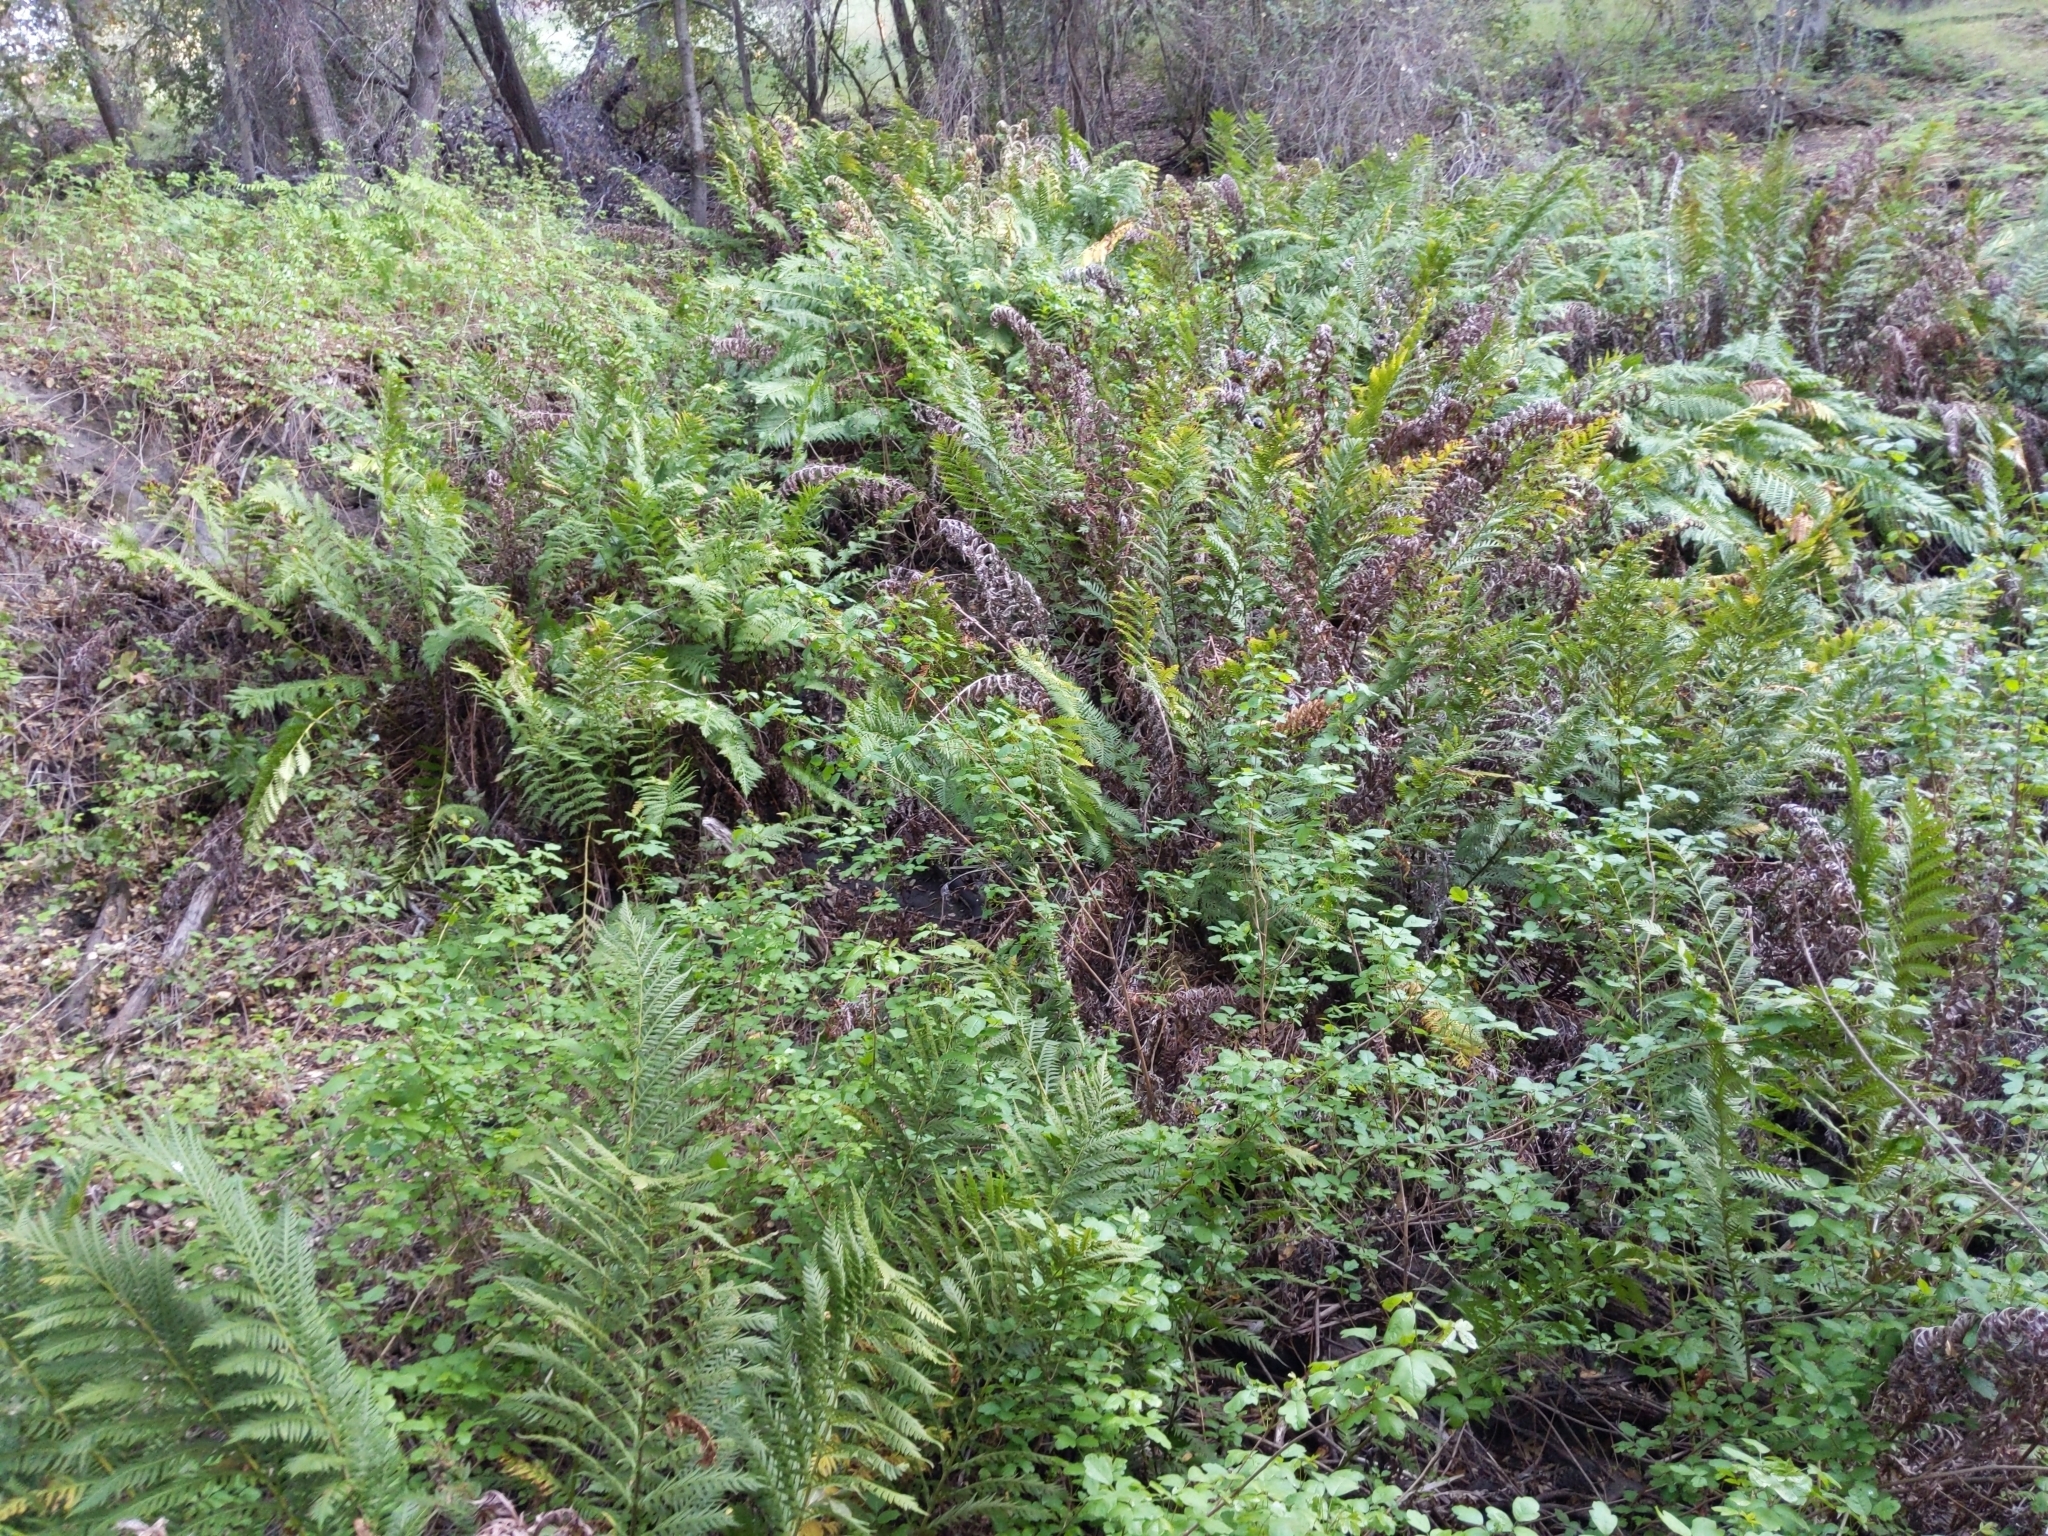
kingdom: Plantae
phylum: Tracheophyta
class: Polypodiopsida
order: Polypodiales
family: Blechnaceae
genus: Woodwardia
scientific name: Woodwardia fimbriata
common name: Giant chain fern
